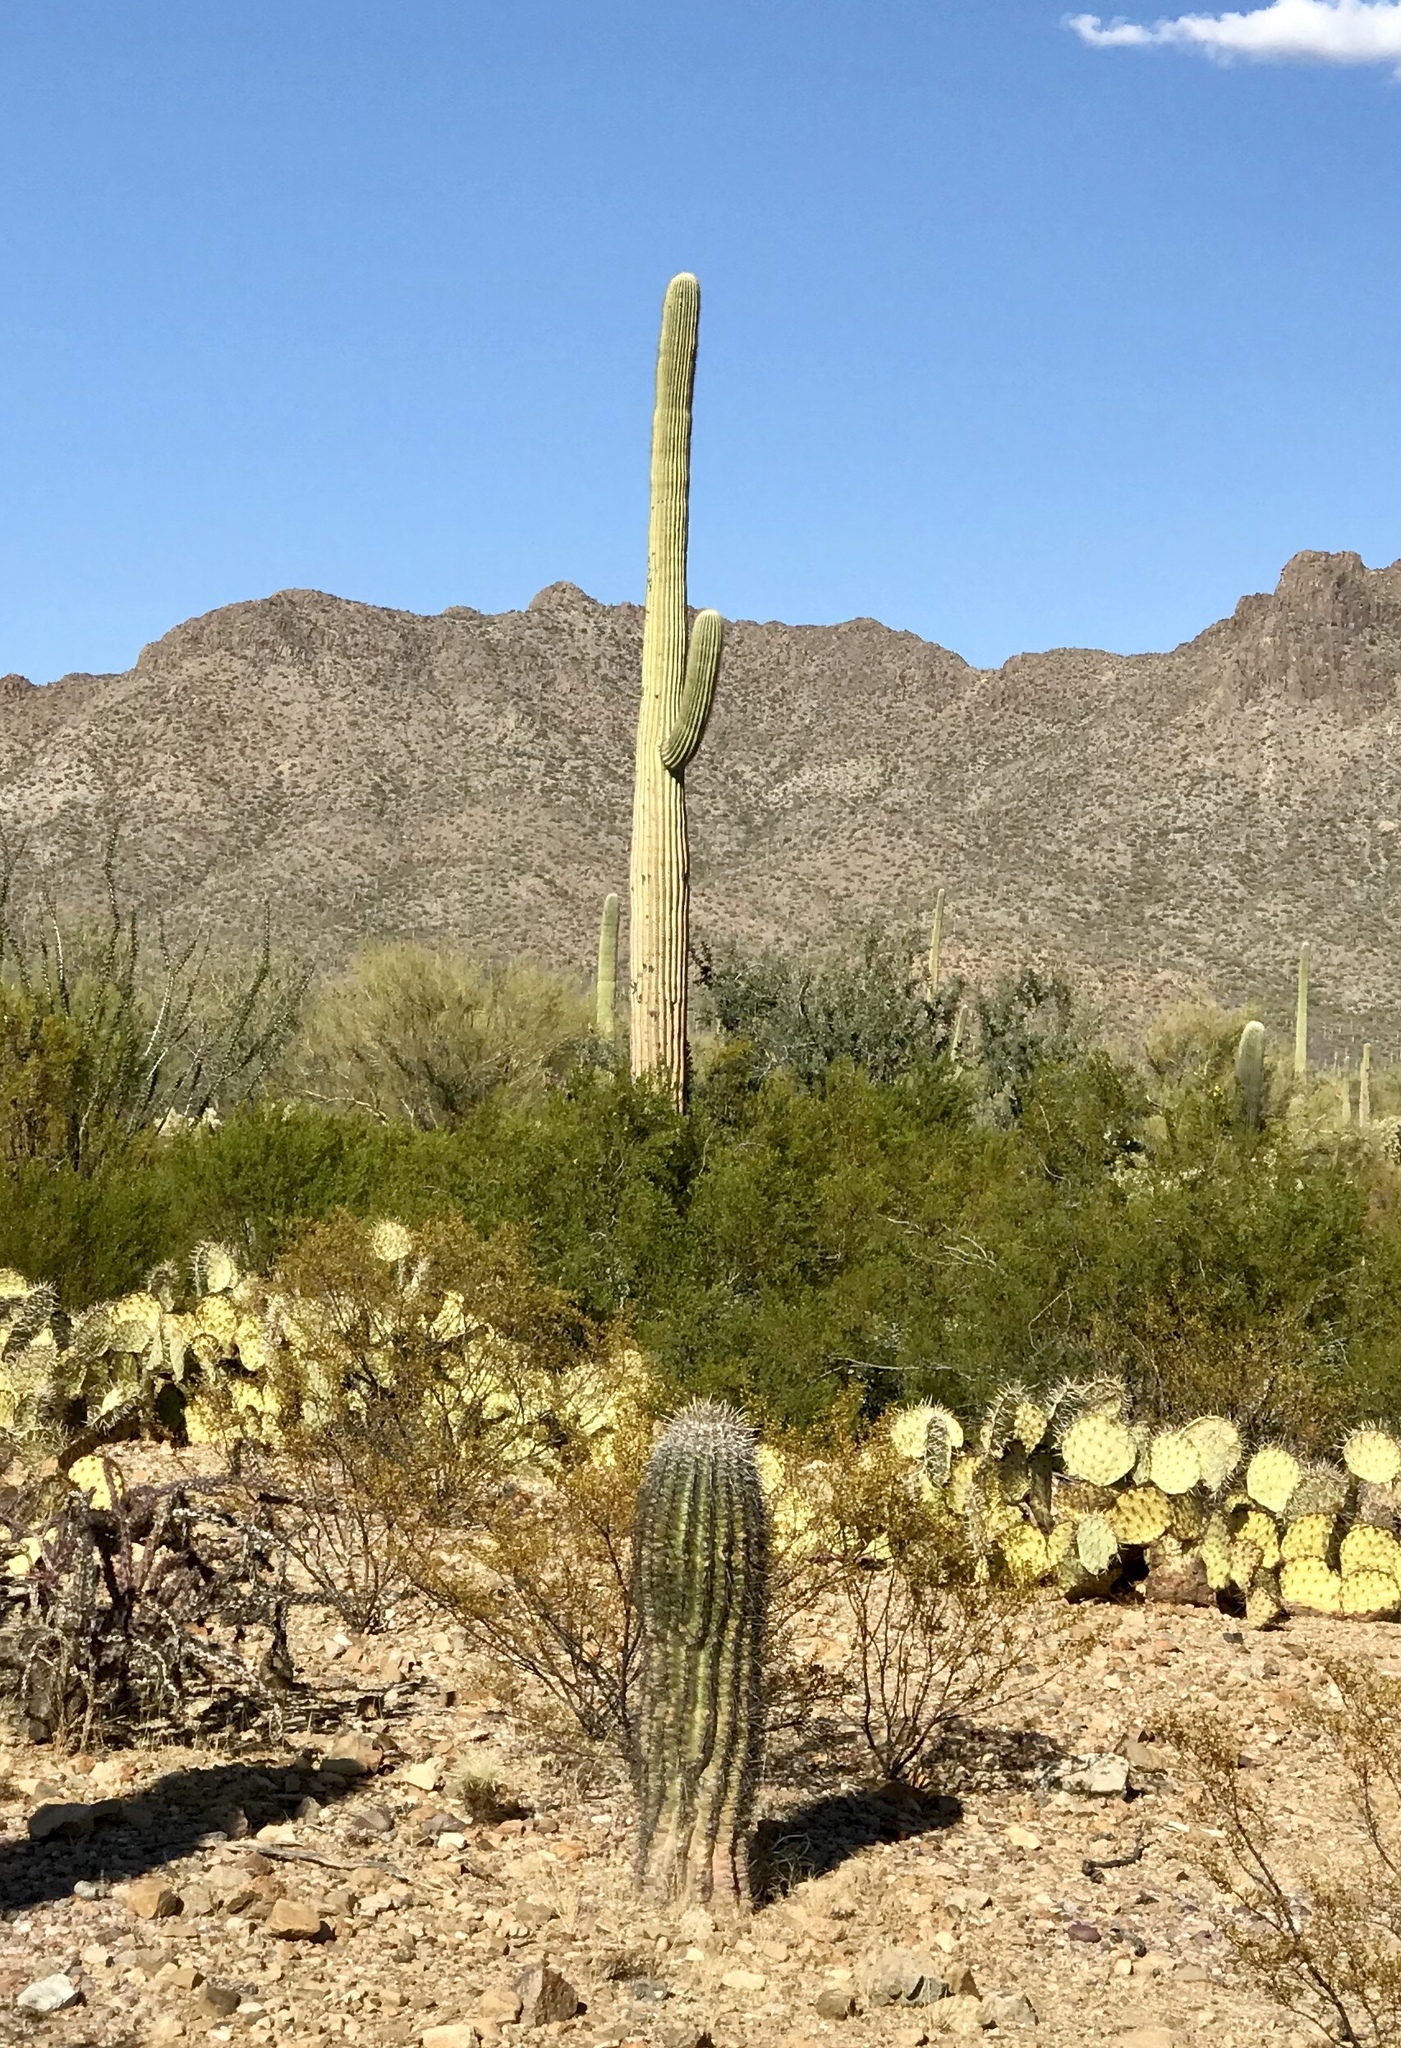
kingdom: Plantae
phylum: Tracheophyta
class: Magnoliopsida
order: Caryophyllales
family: Cactaceae
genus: Carnegiea
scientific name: Carnegiea gigantea
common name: Saguaro
